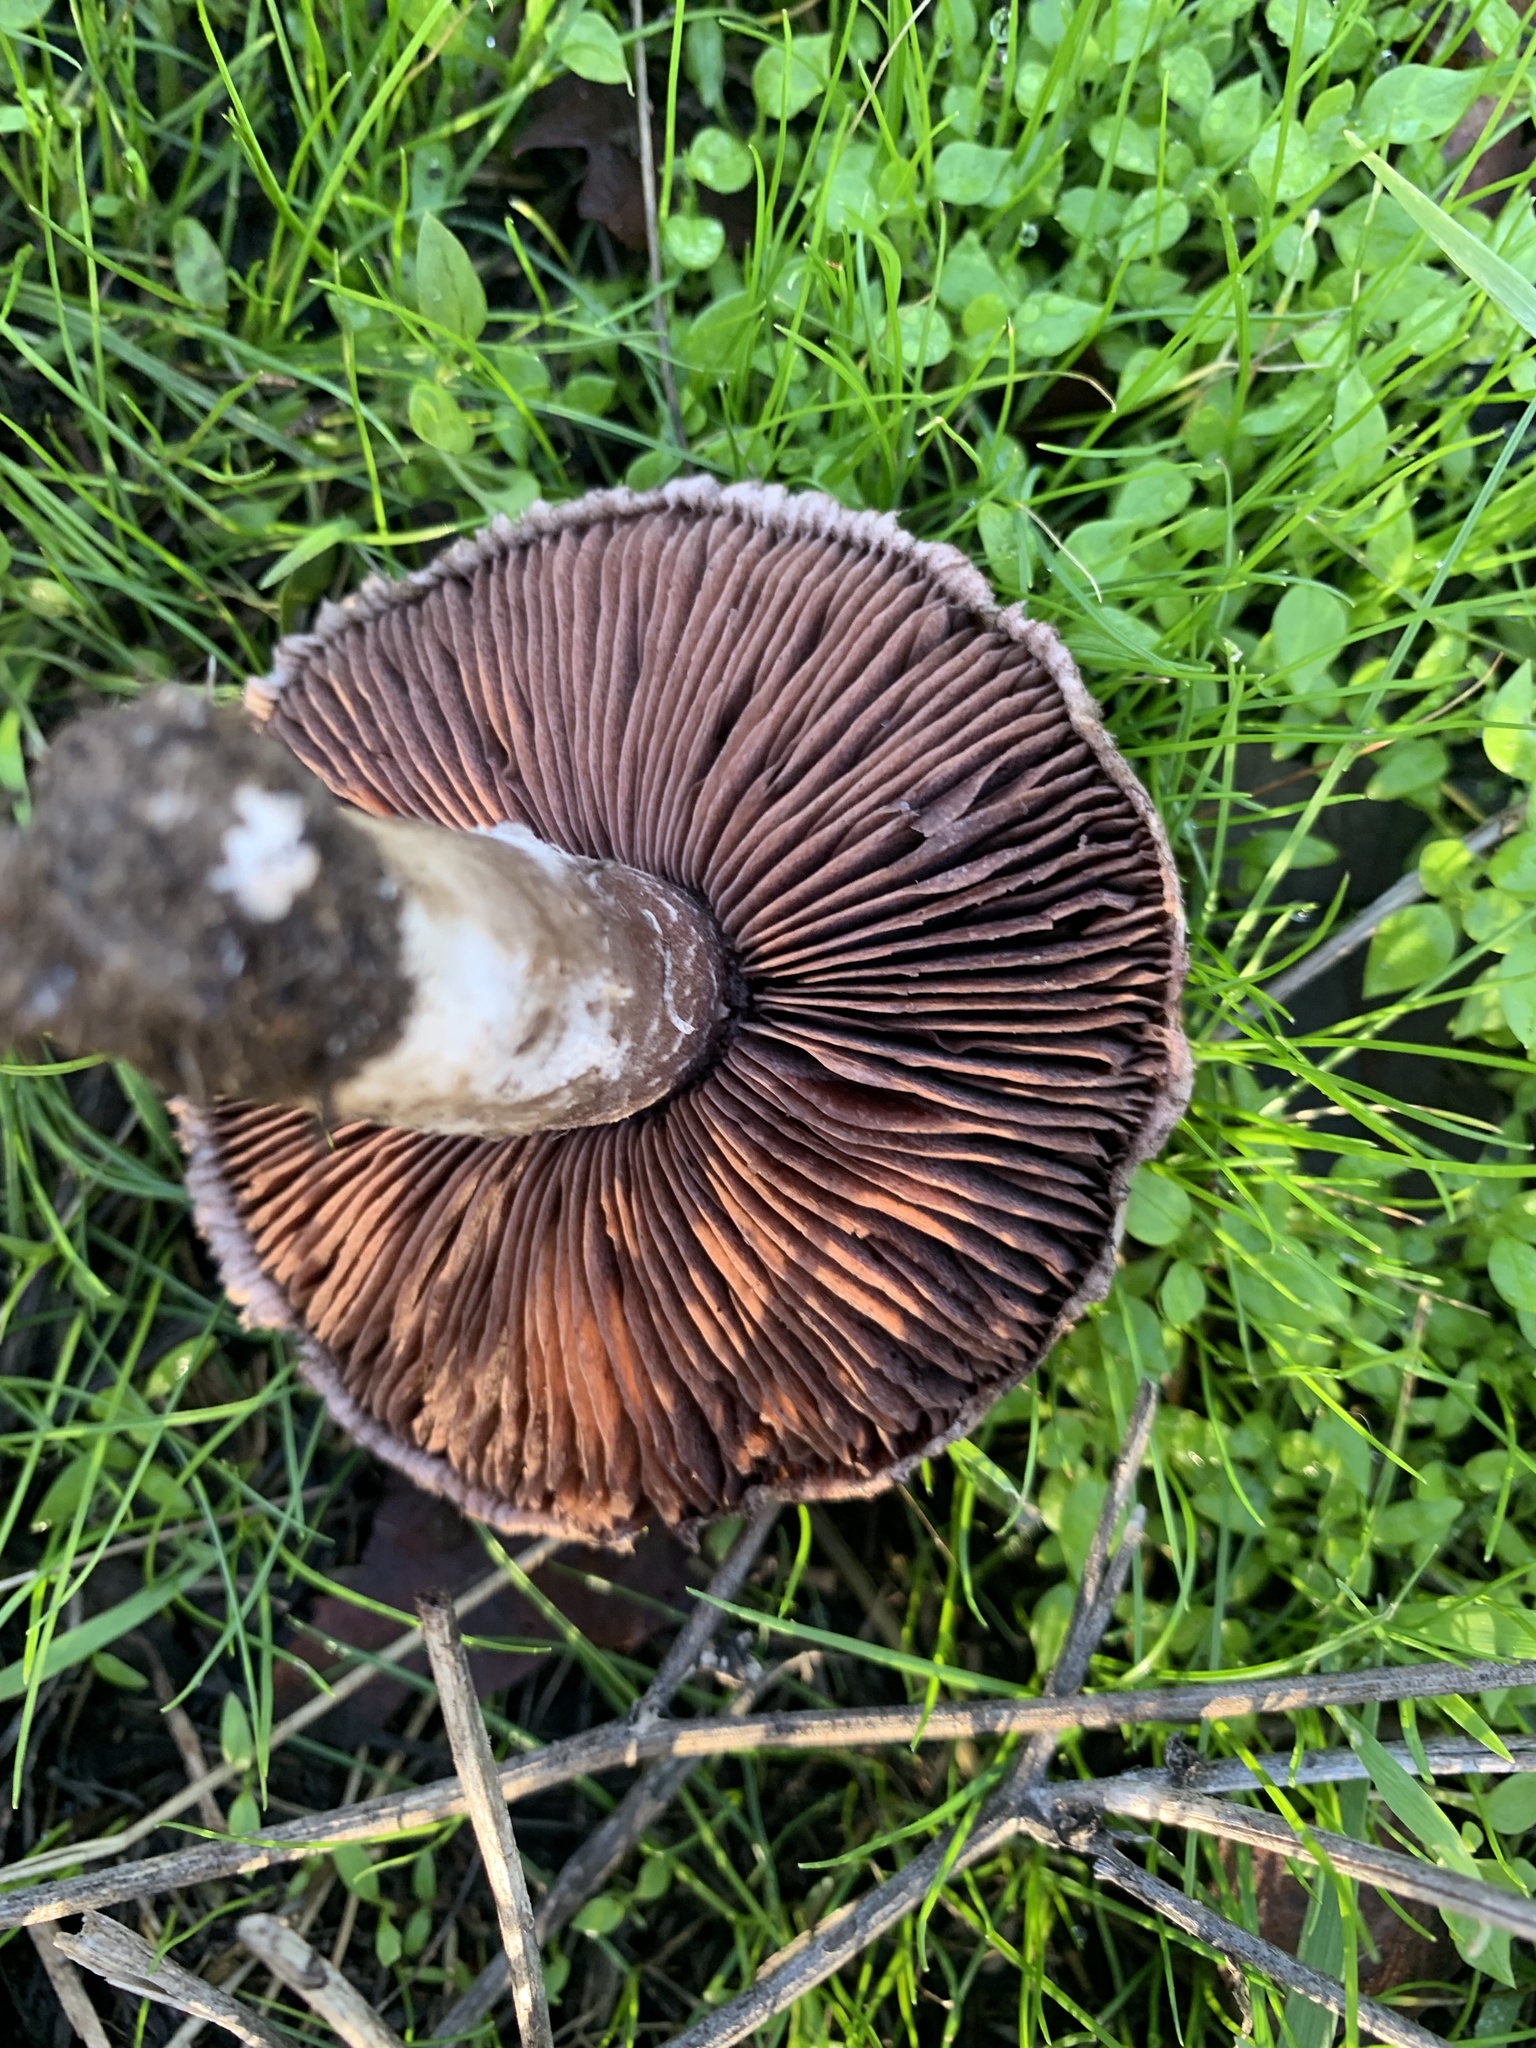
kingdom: Fungi
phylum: Basidiomycota
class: Agaricomycetes
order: Agaricales
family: Agaricaceae
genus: Agaricus
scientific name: Agaricus incultorum
